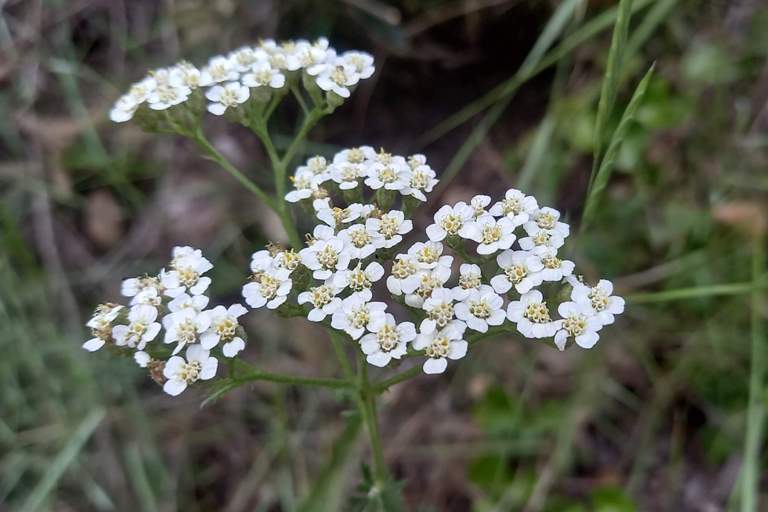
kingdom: Plantae
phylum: Tracheophyta
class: Magnoliopsida
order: Asterales
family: Asteraceae
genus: Achillea
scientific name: Achillea millefolium
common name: Yarrow
